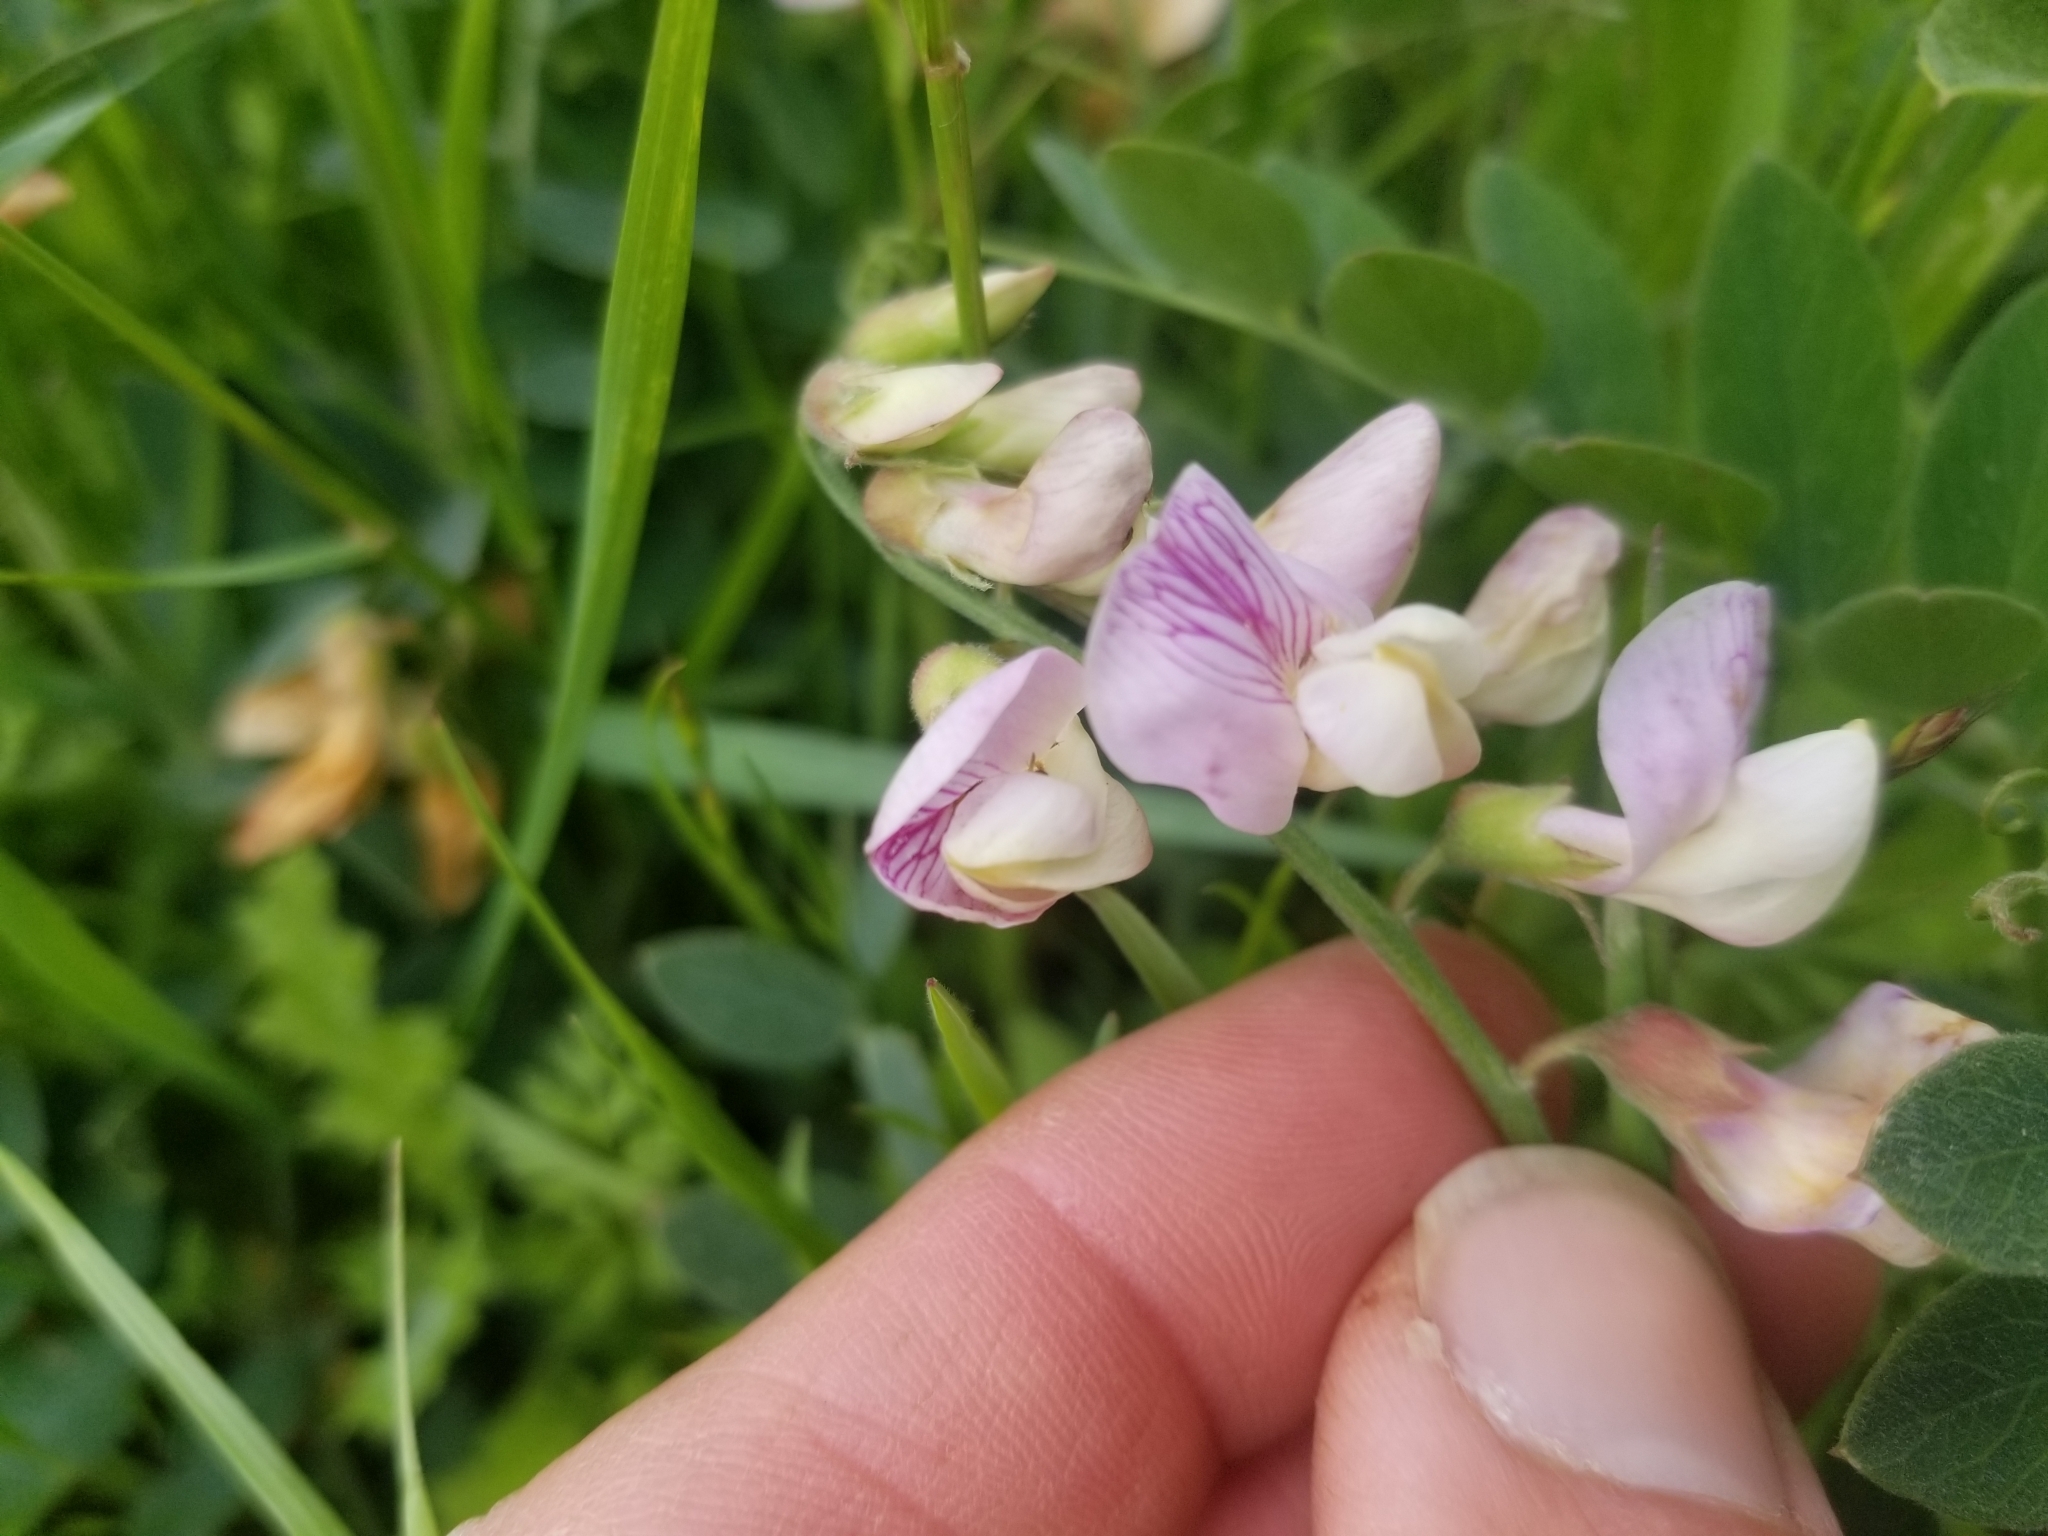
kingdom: Plantae
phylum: Tracheophyta
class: Magnoliopsida
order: Fabales
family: Fabaceae
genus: Lathyrus
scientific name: Lathyrus vestitus
